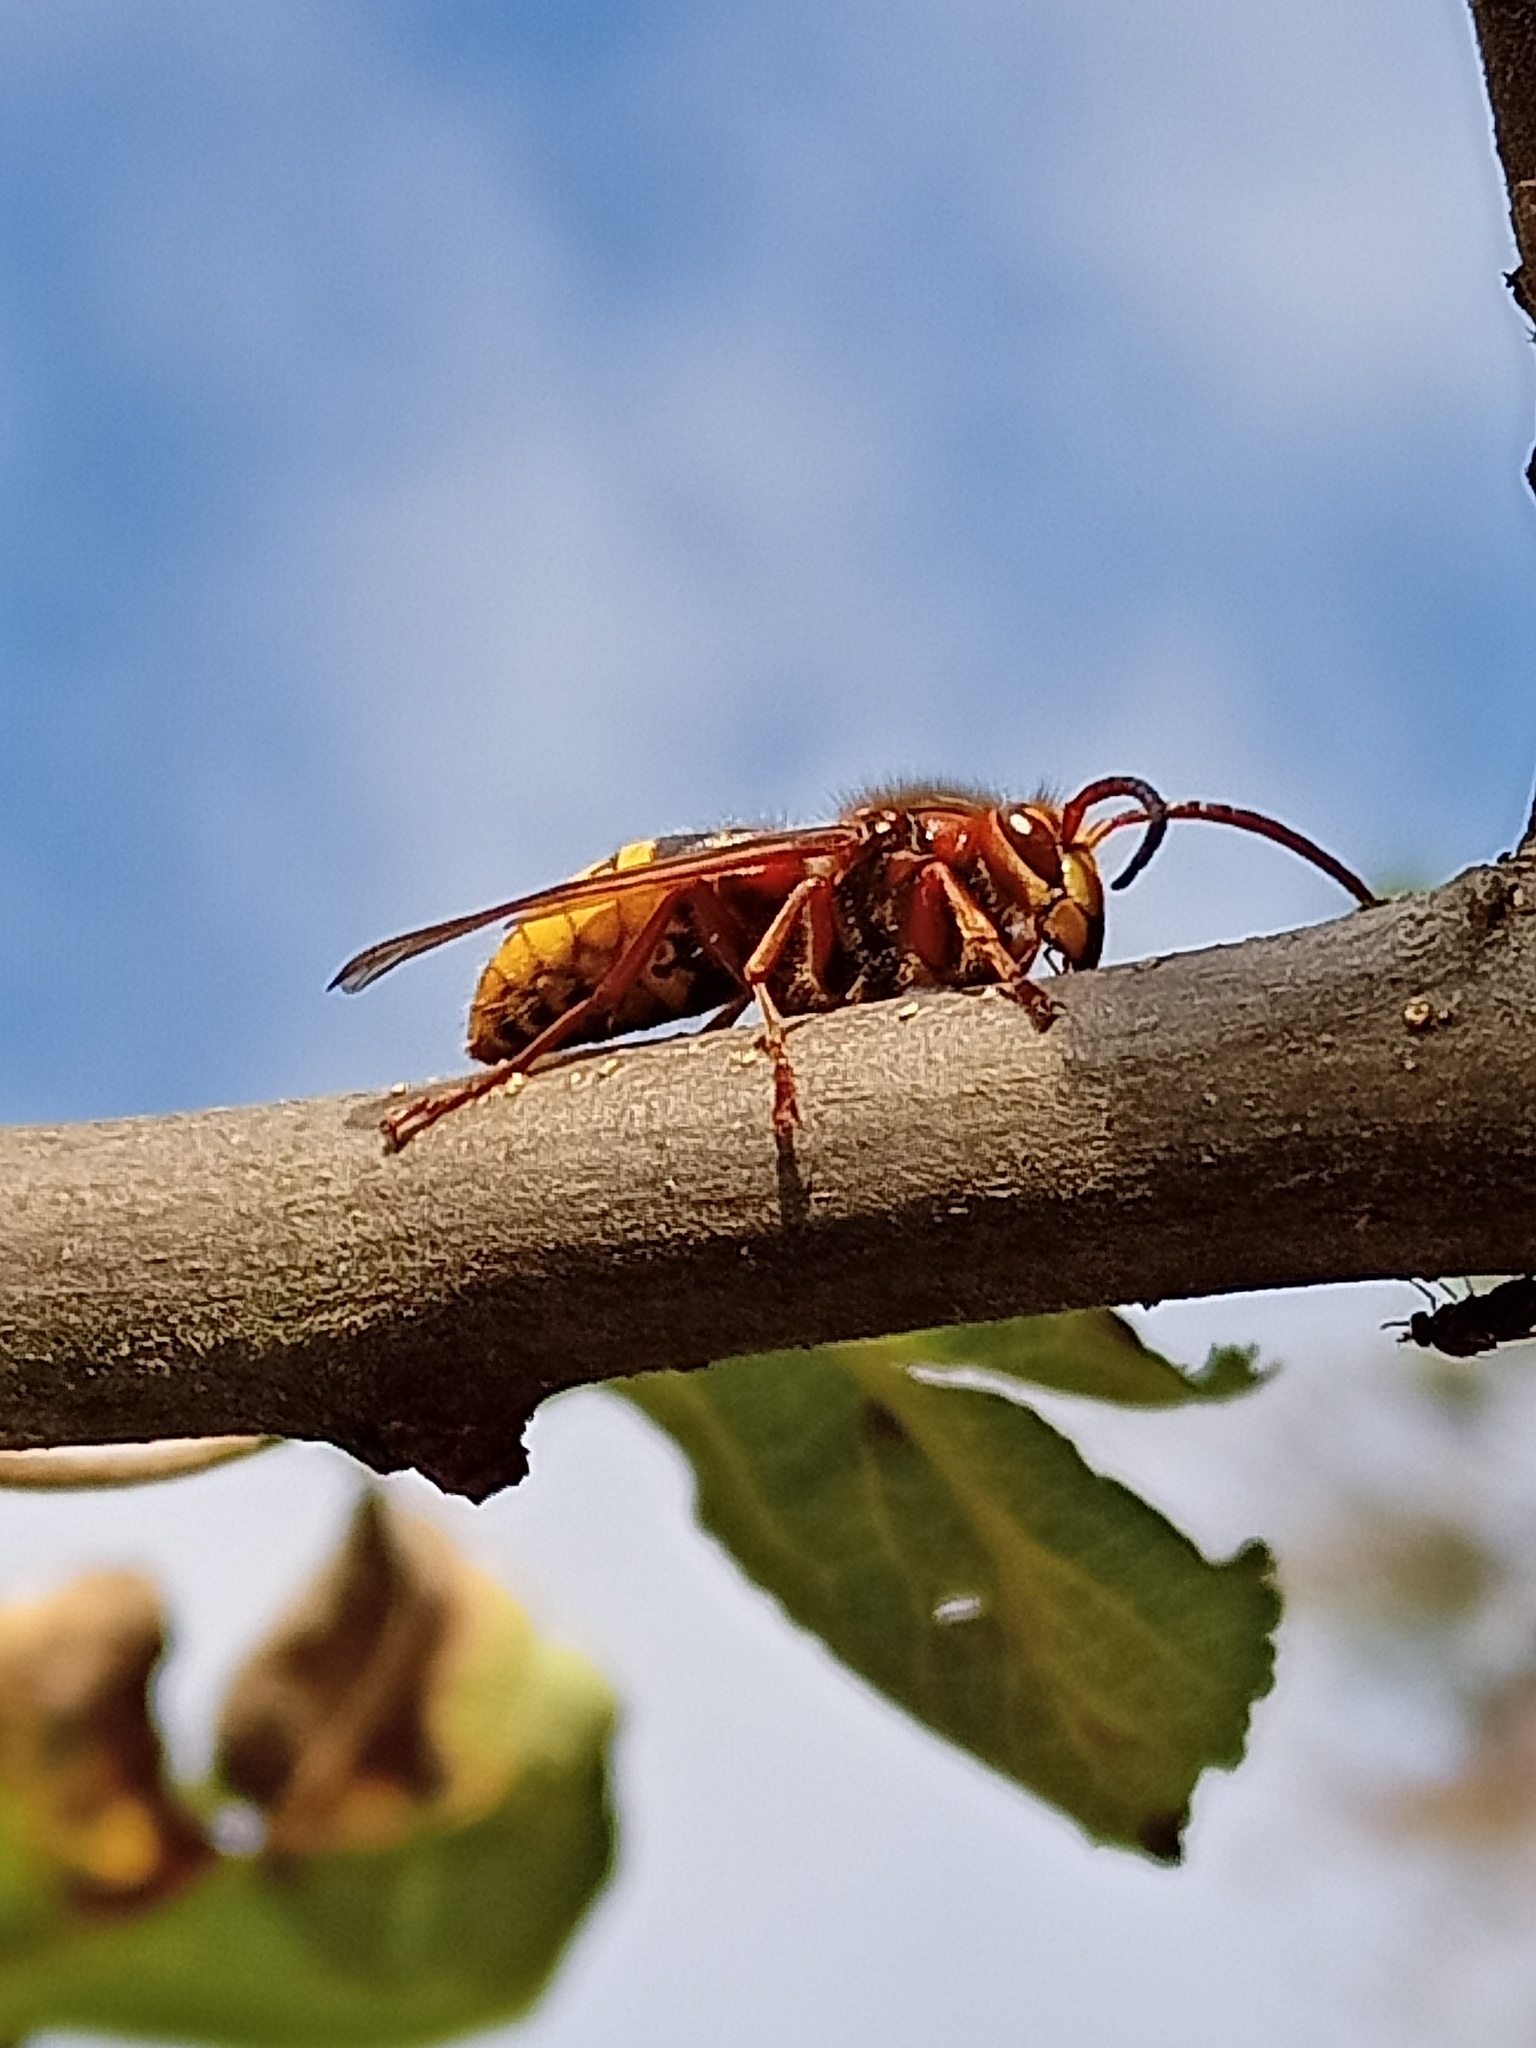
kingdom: Animalia
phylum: Arthropoda
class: Insecta
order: Hymenoptera
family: Vespidae
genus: Vespa
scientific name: Vespa crabro
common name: Hornet
